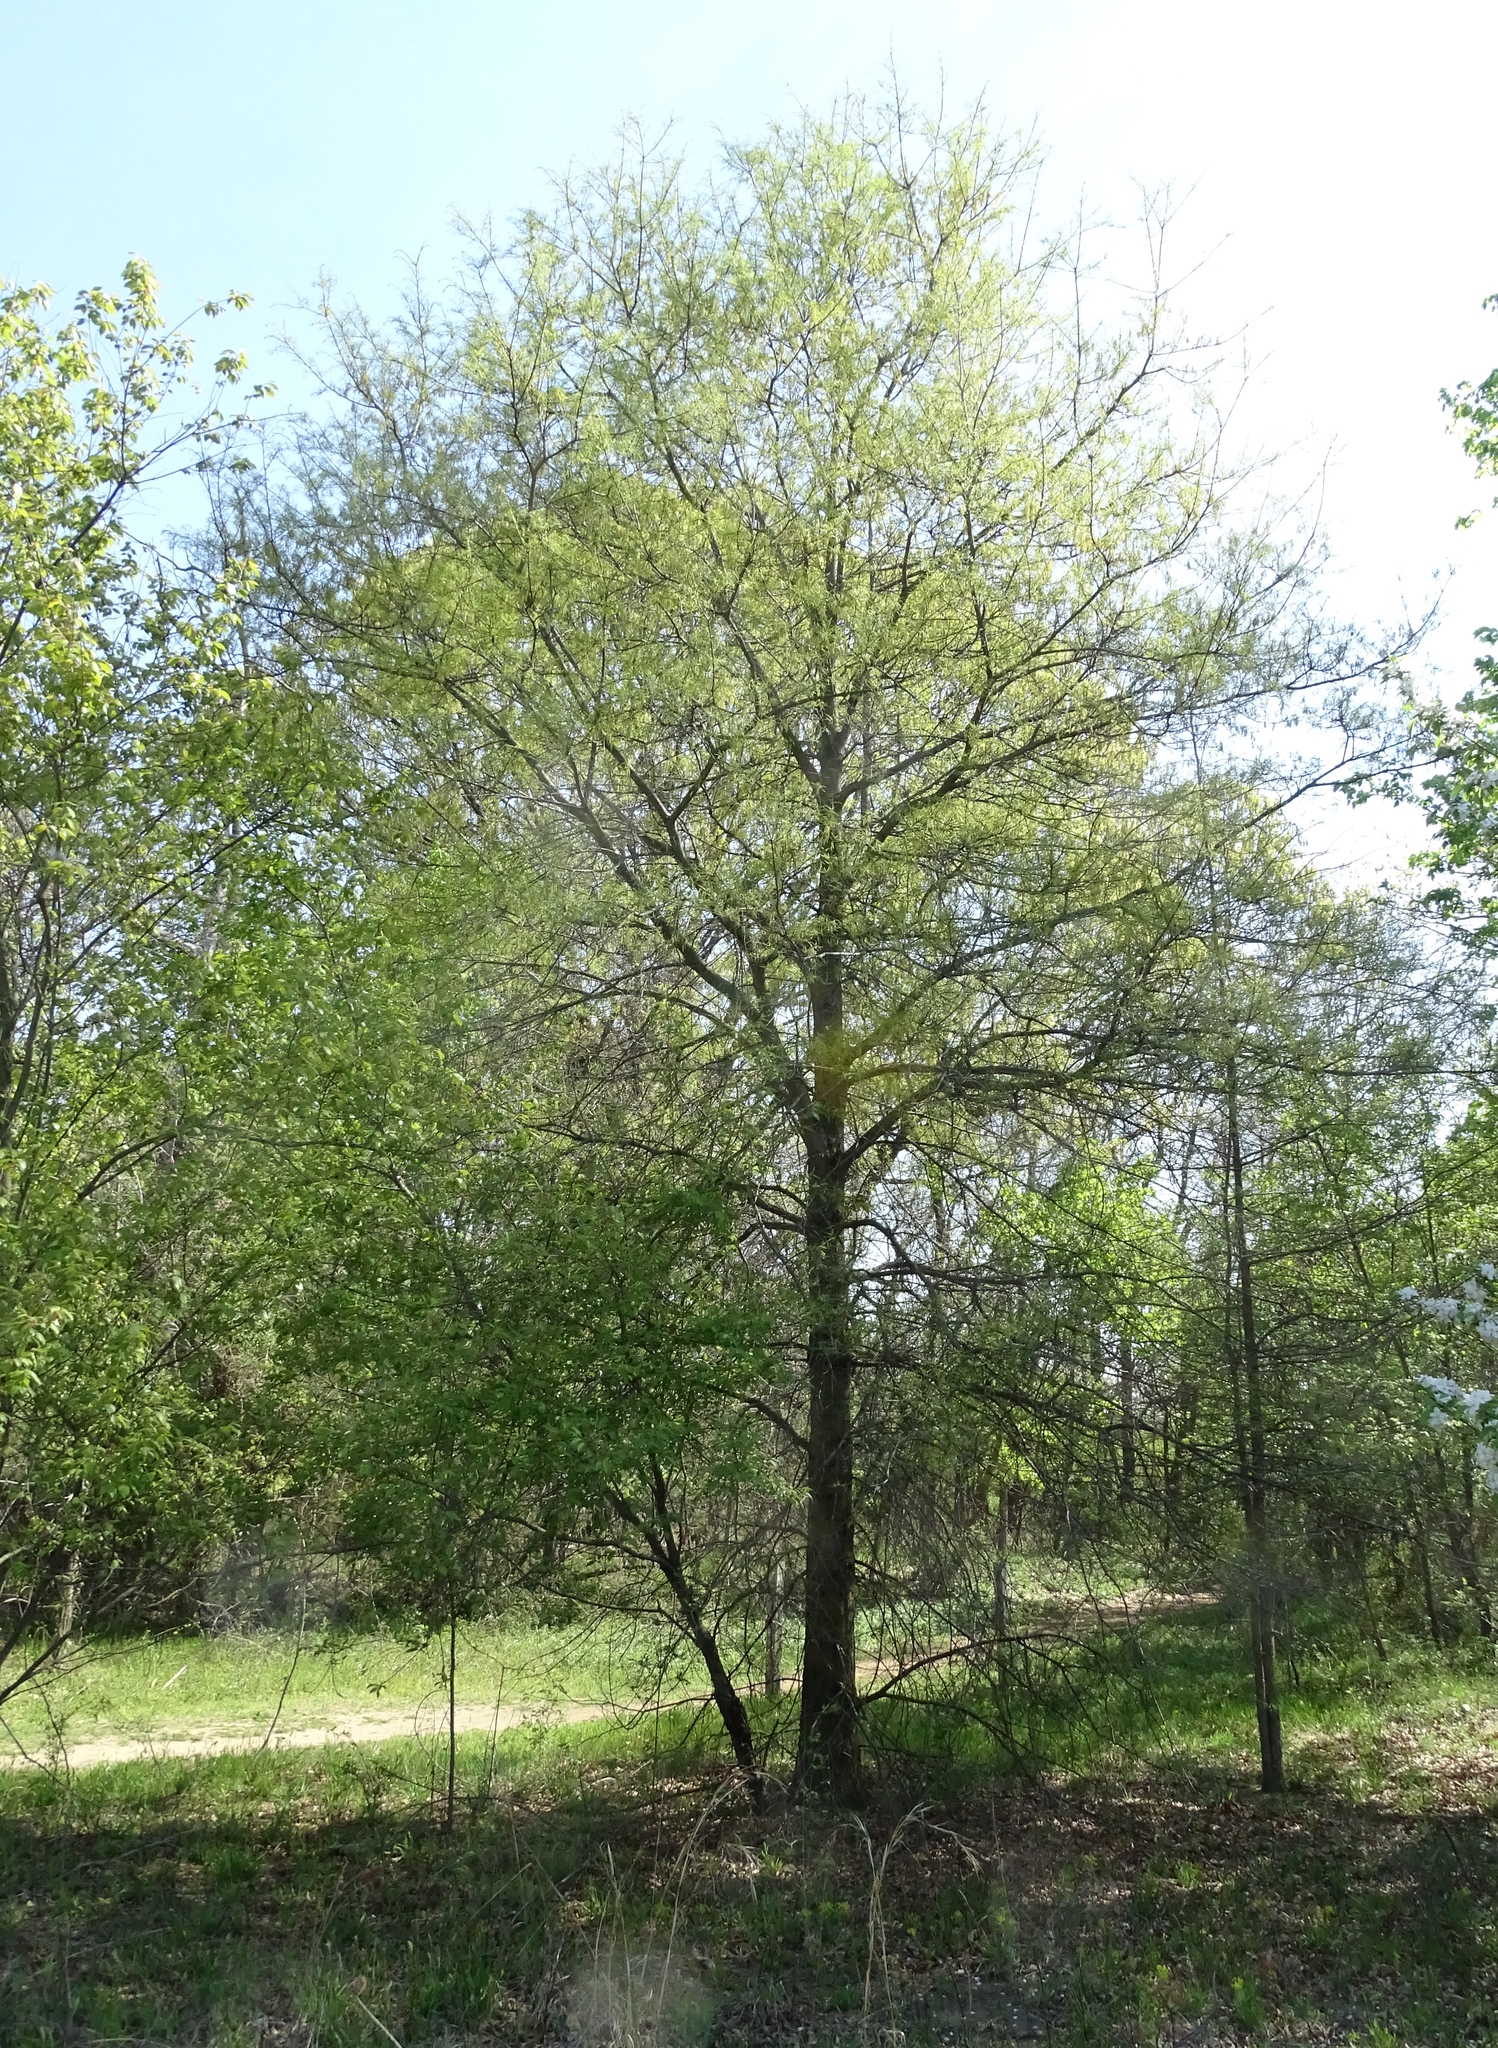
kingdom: Plantae
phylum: Tracheophyta
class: Magnoliopsida
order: Fagales
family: Fagaceae
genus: Quercus
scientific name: Quercus phellos
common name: Willow oak
